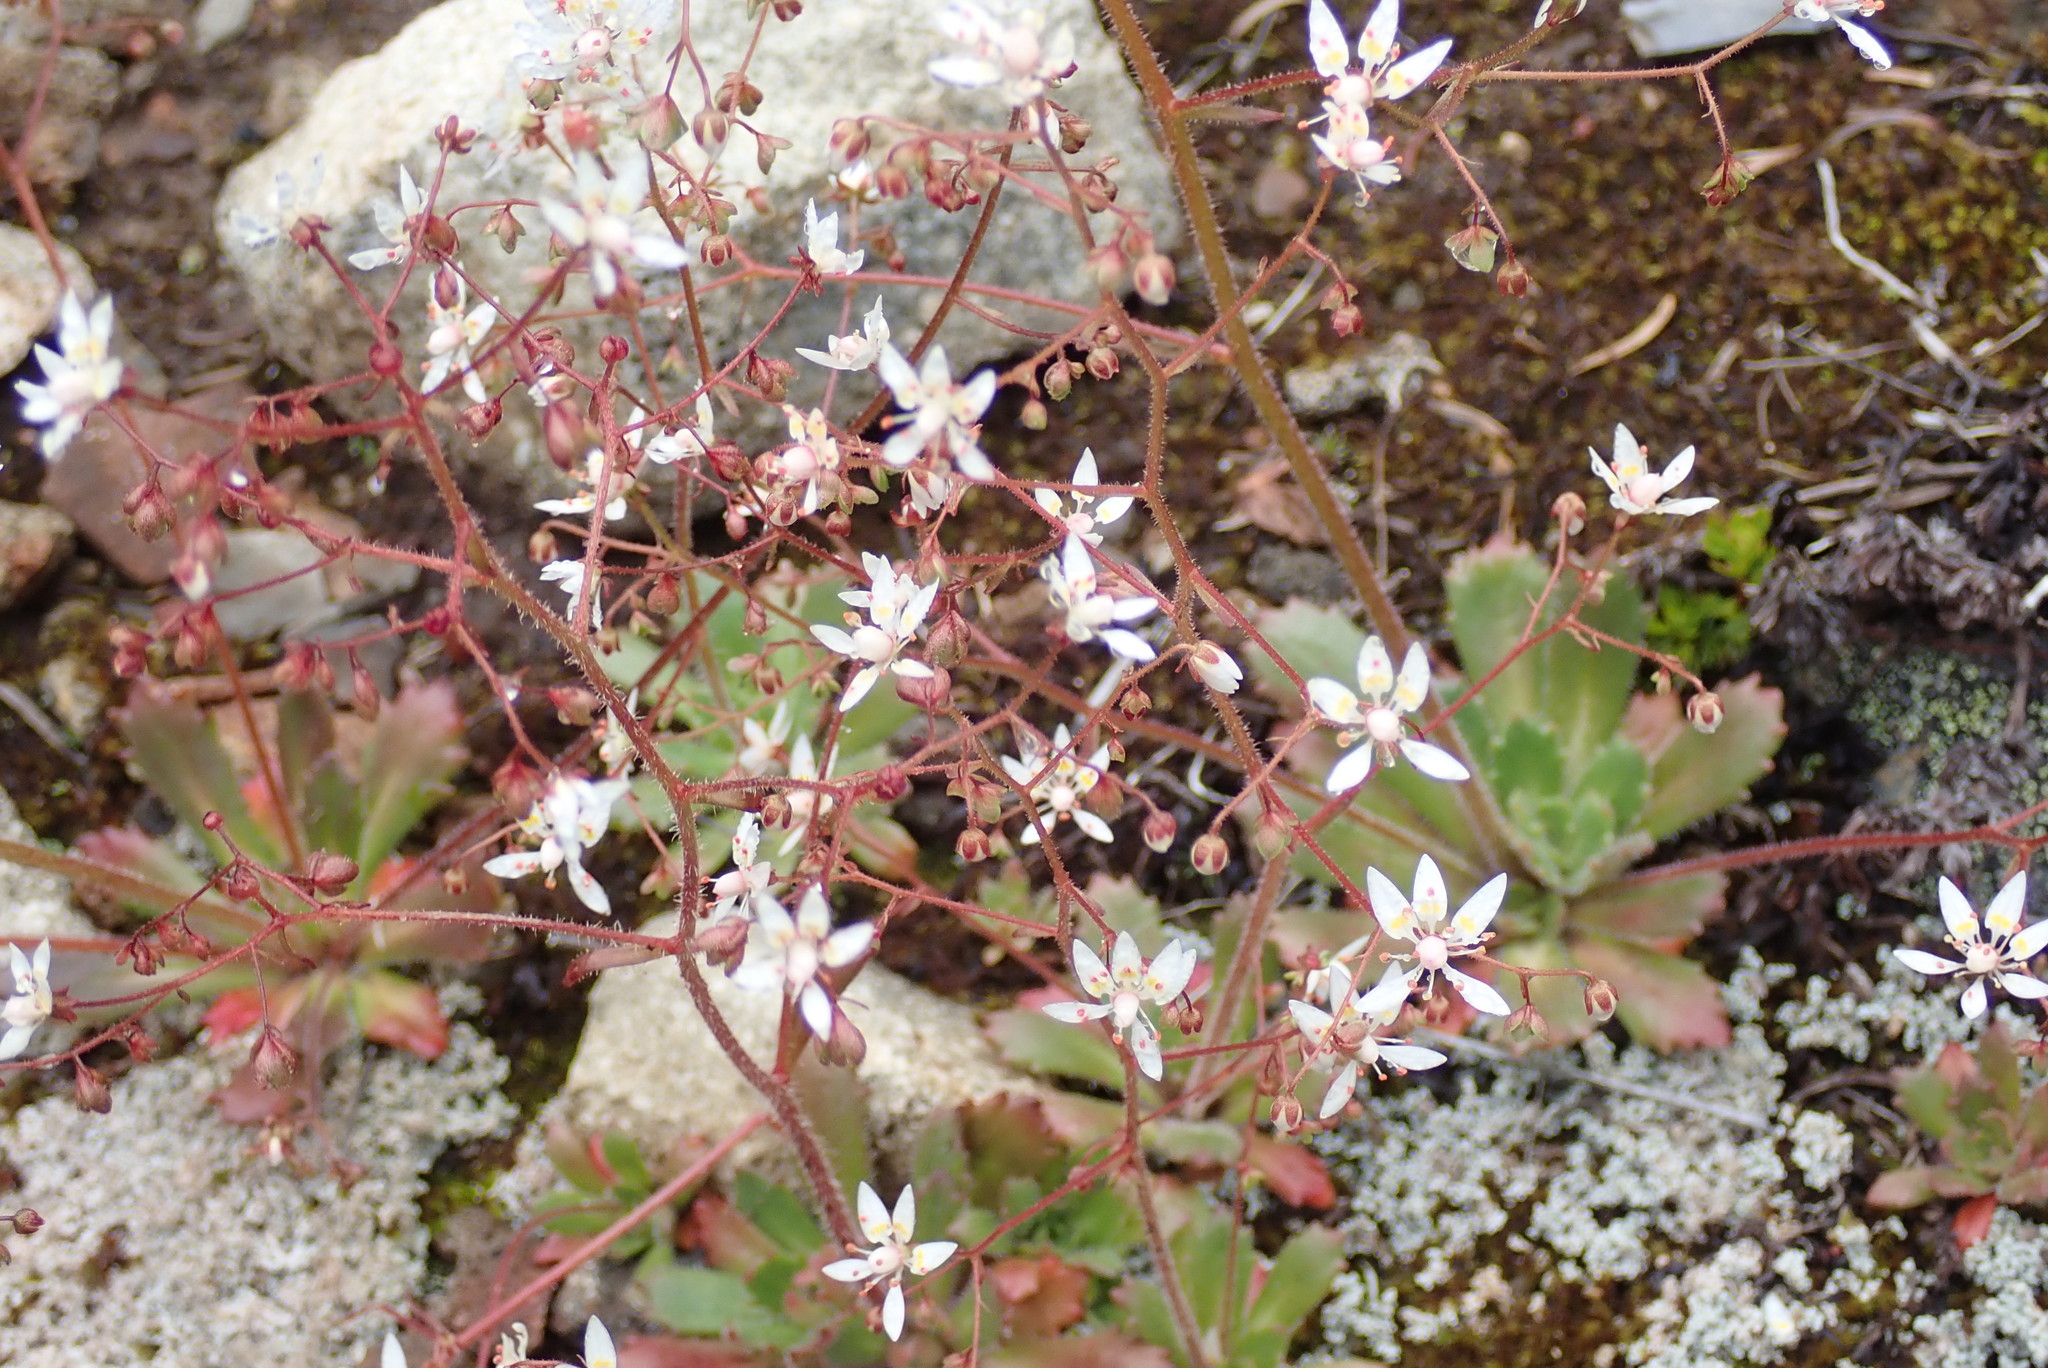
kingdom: Plantae
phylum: Tracheophyta
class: Magnoliopsida
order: Saxifragales
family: Saxifragaceae
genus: Micranthes
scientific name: Micranthes ferruginea
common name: Rusty saxifrage
